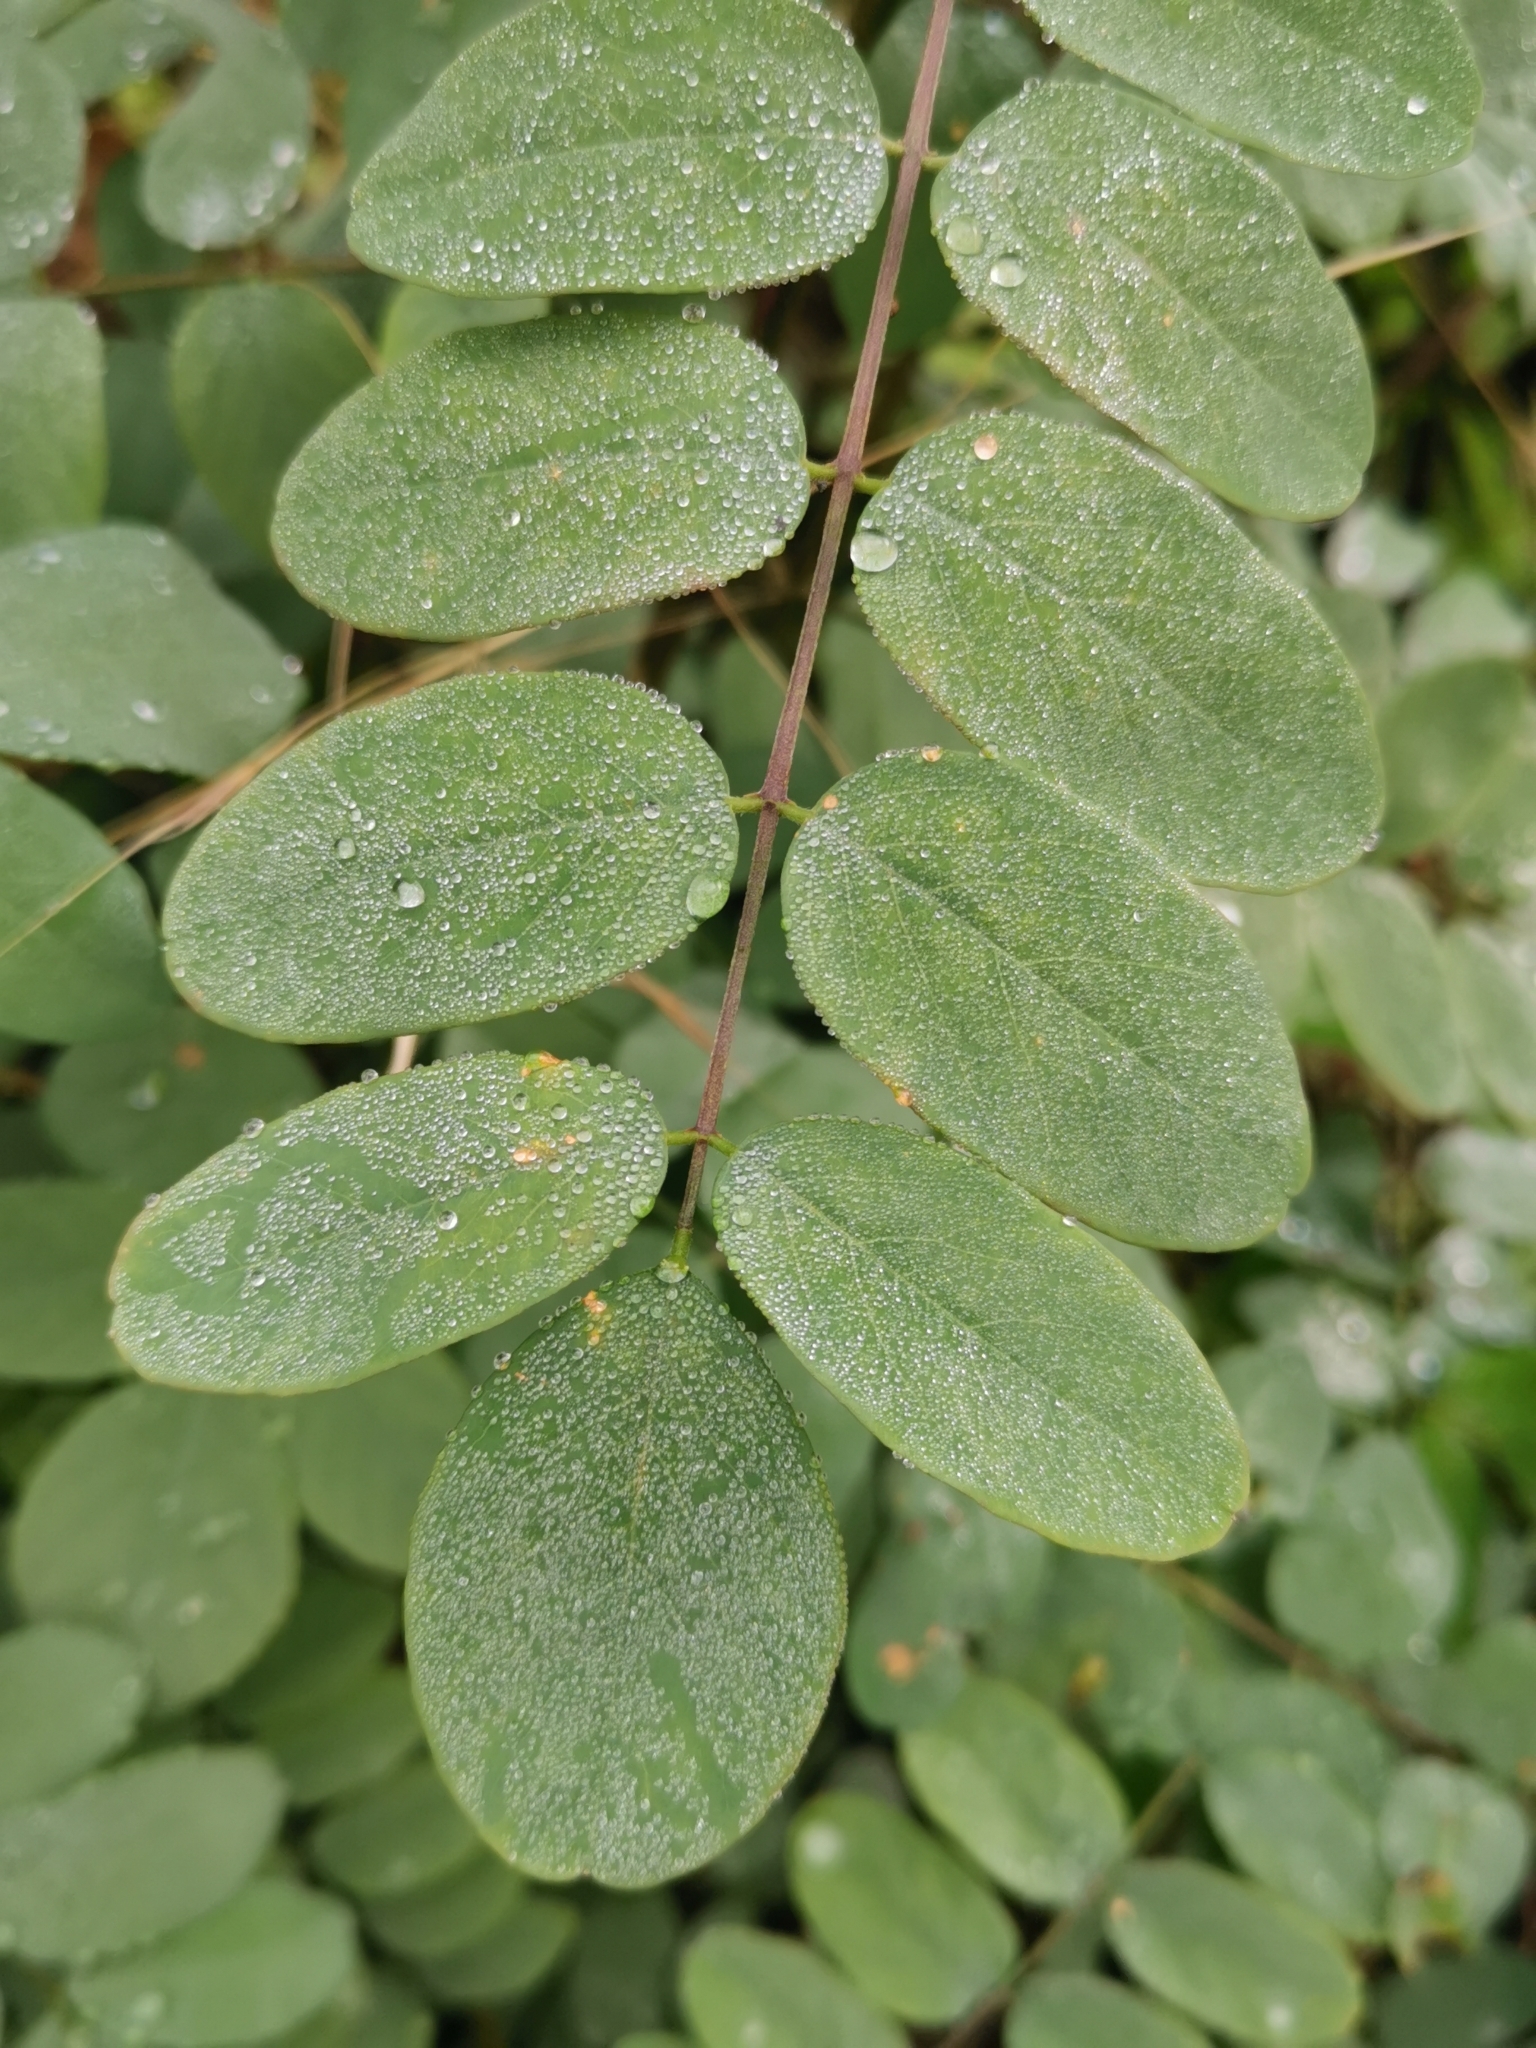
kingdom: Plantae
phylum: Tracheophyta
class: Magnoliopsida
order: Fabales
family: Fabaceae
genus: Robinia
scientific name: Robinia pseudoacacia
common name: Black locust
